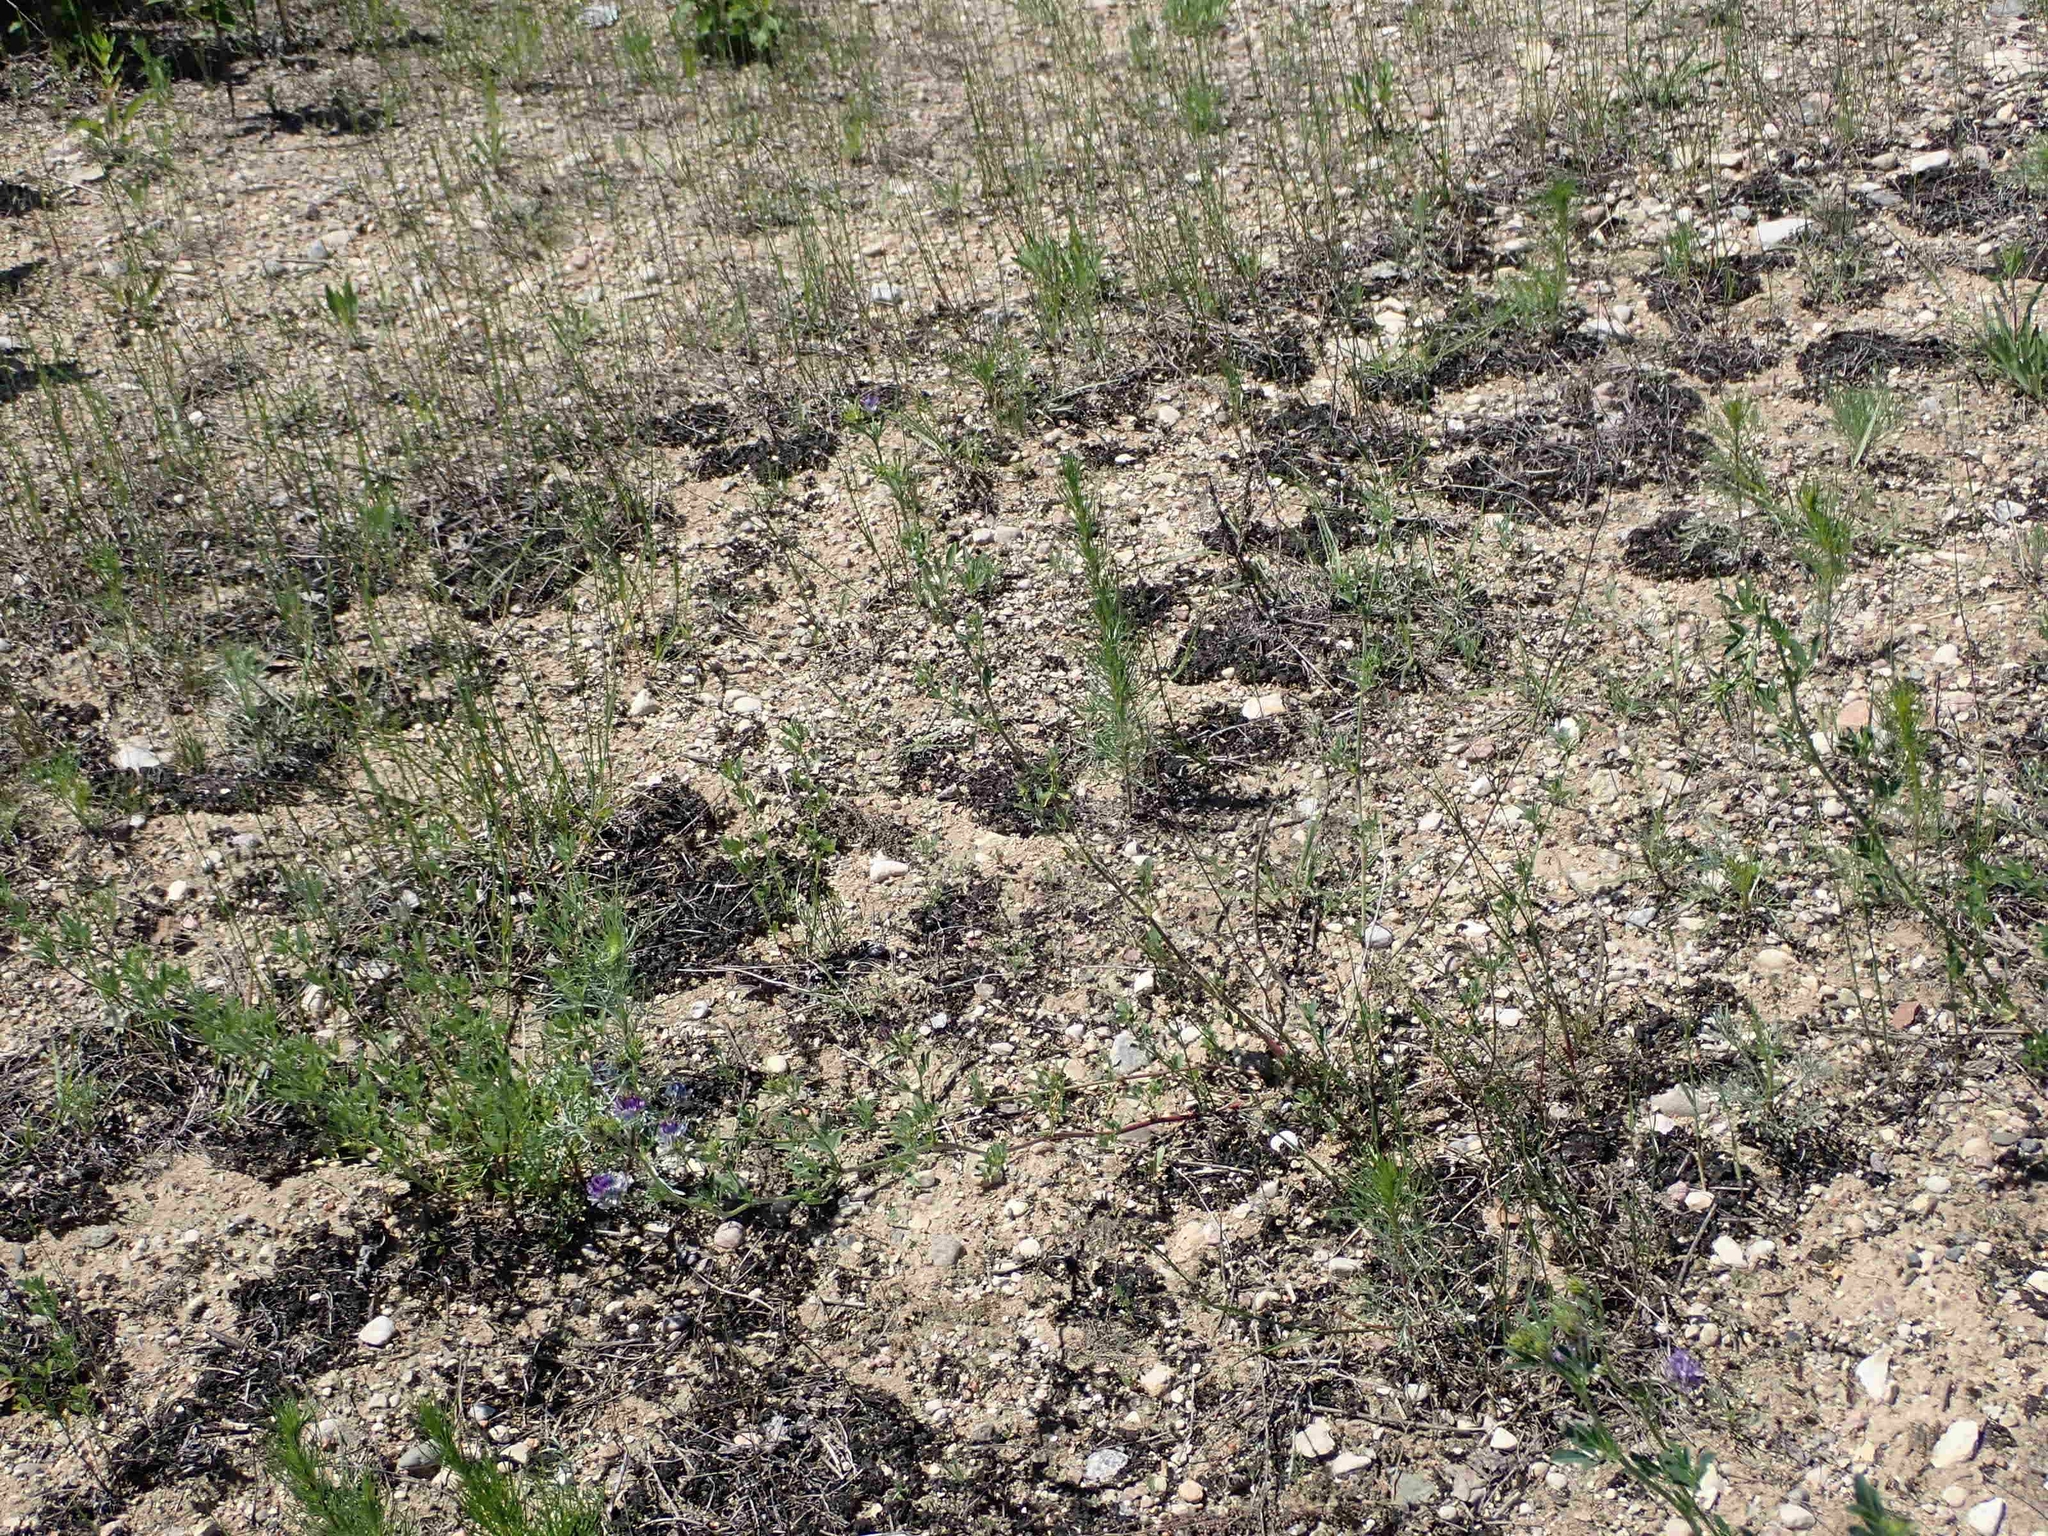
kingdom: Bacteria
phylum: Cyanobacteria
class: Cyanobacteriia
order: Cyanobacteriales
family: Nostocaceae
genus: Nostoc
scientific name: Nostoc commune
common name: Star jelly
